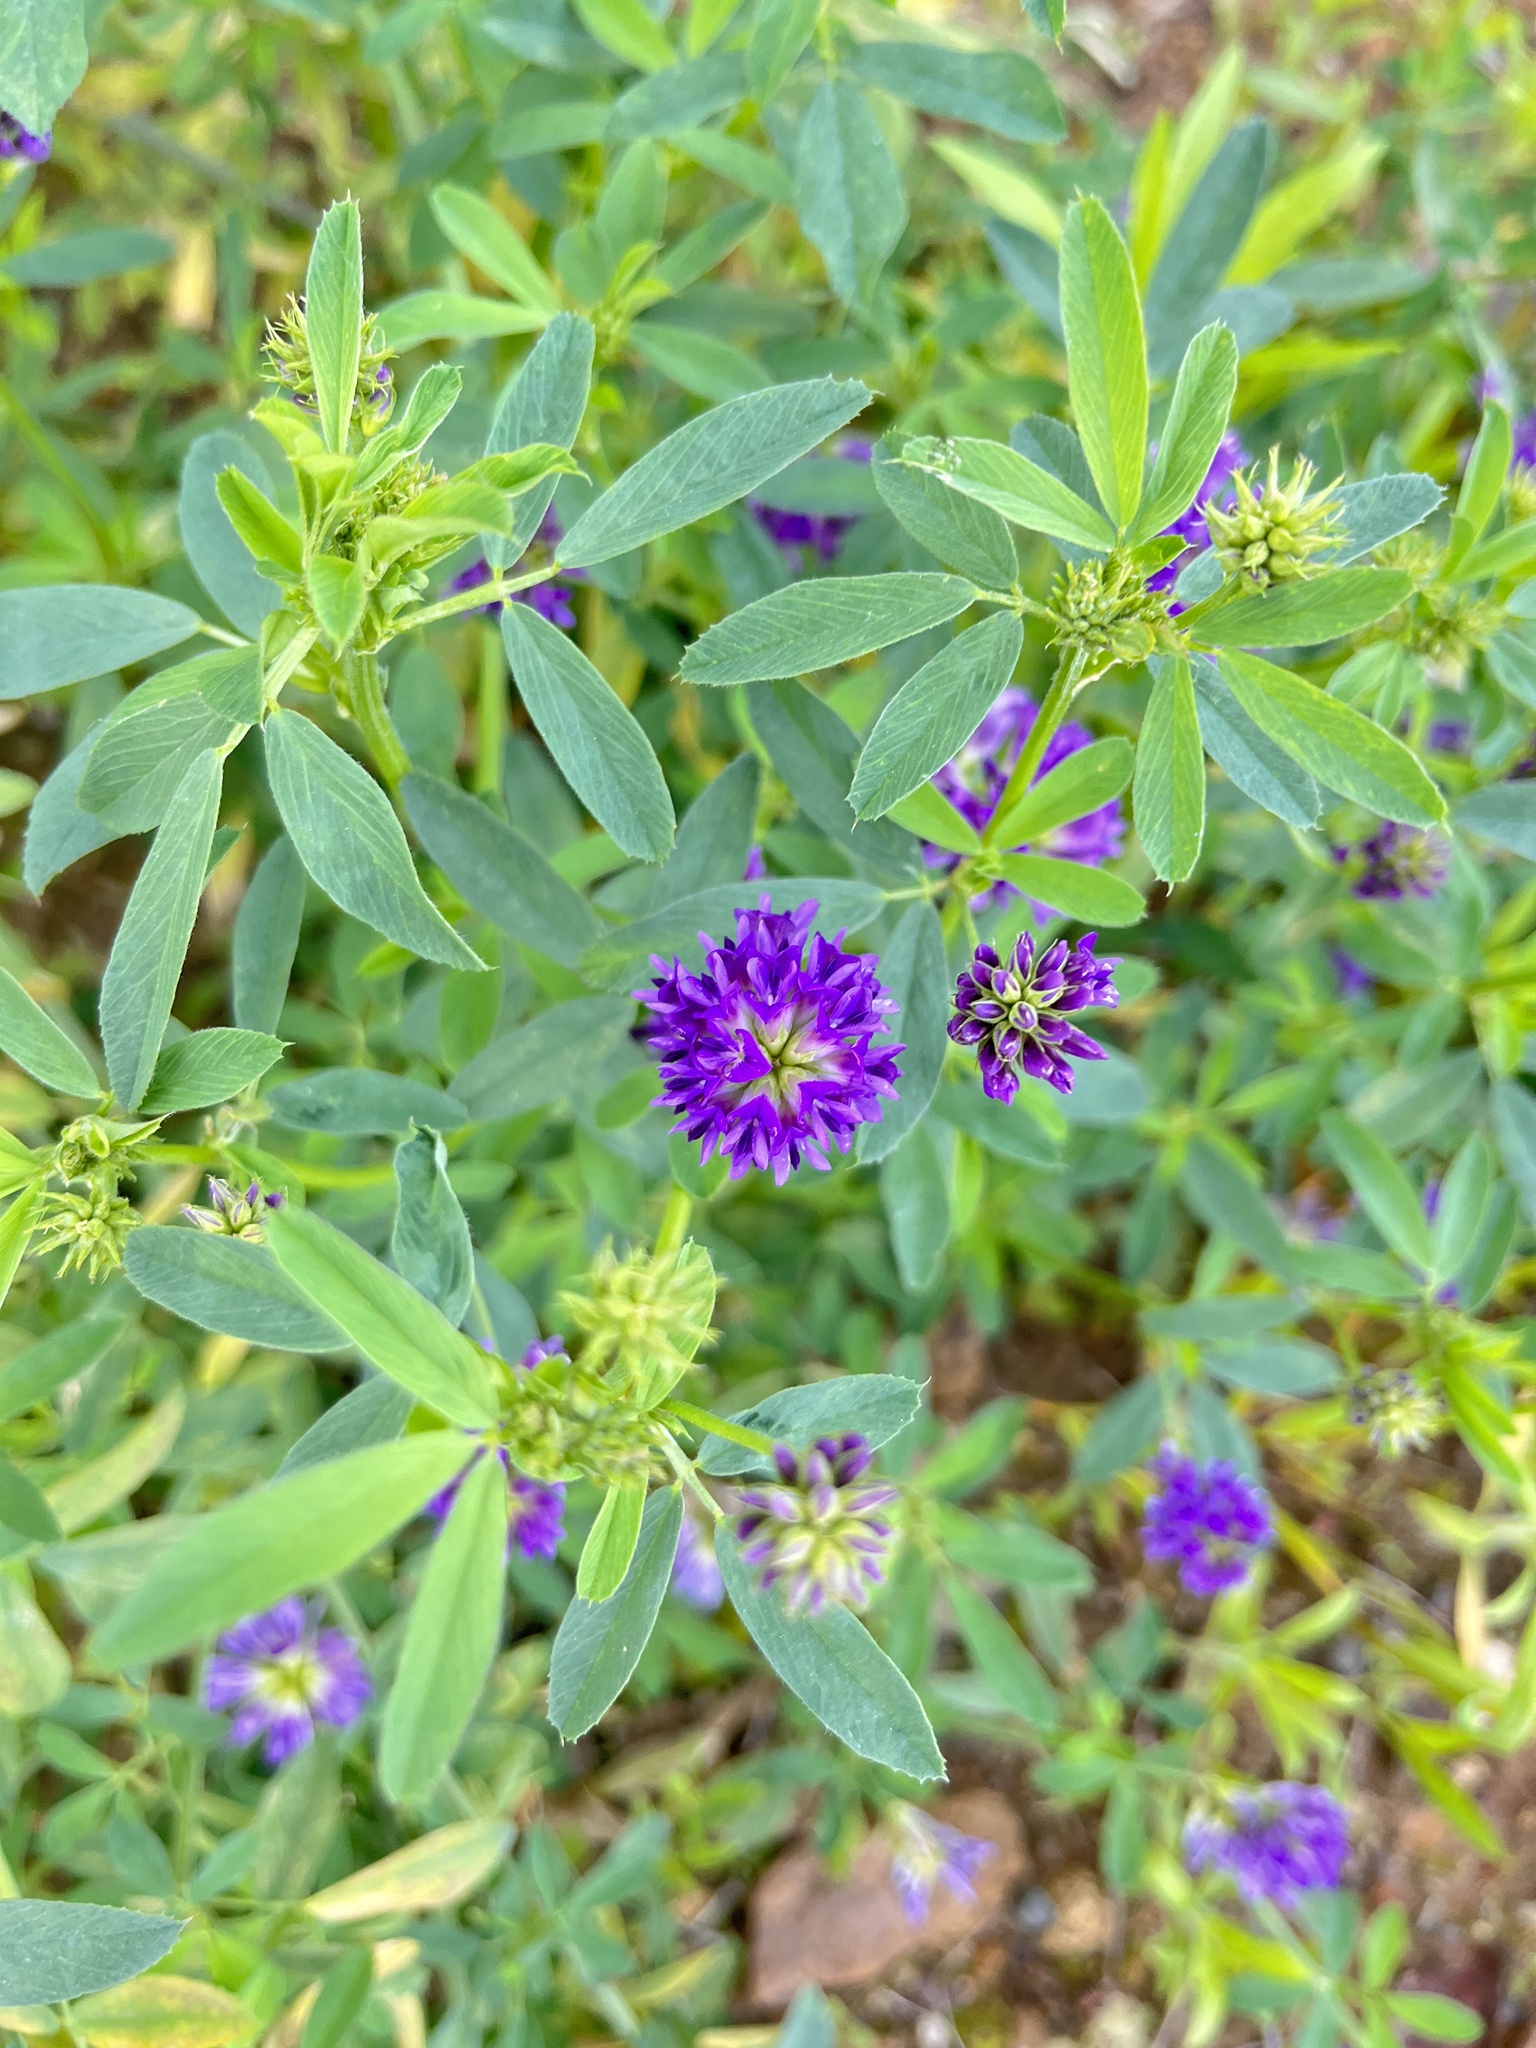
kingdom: Plantae
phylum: Tracheophyta
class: Magnoliopsida
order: Fabales
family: Fabaceae
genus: Medicago
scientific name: Medicago sativa
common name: Alfalfa
